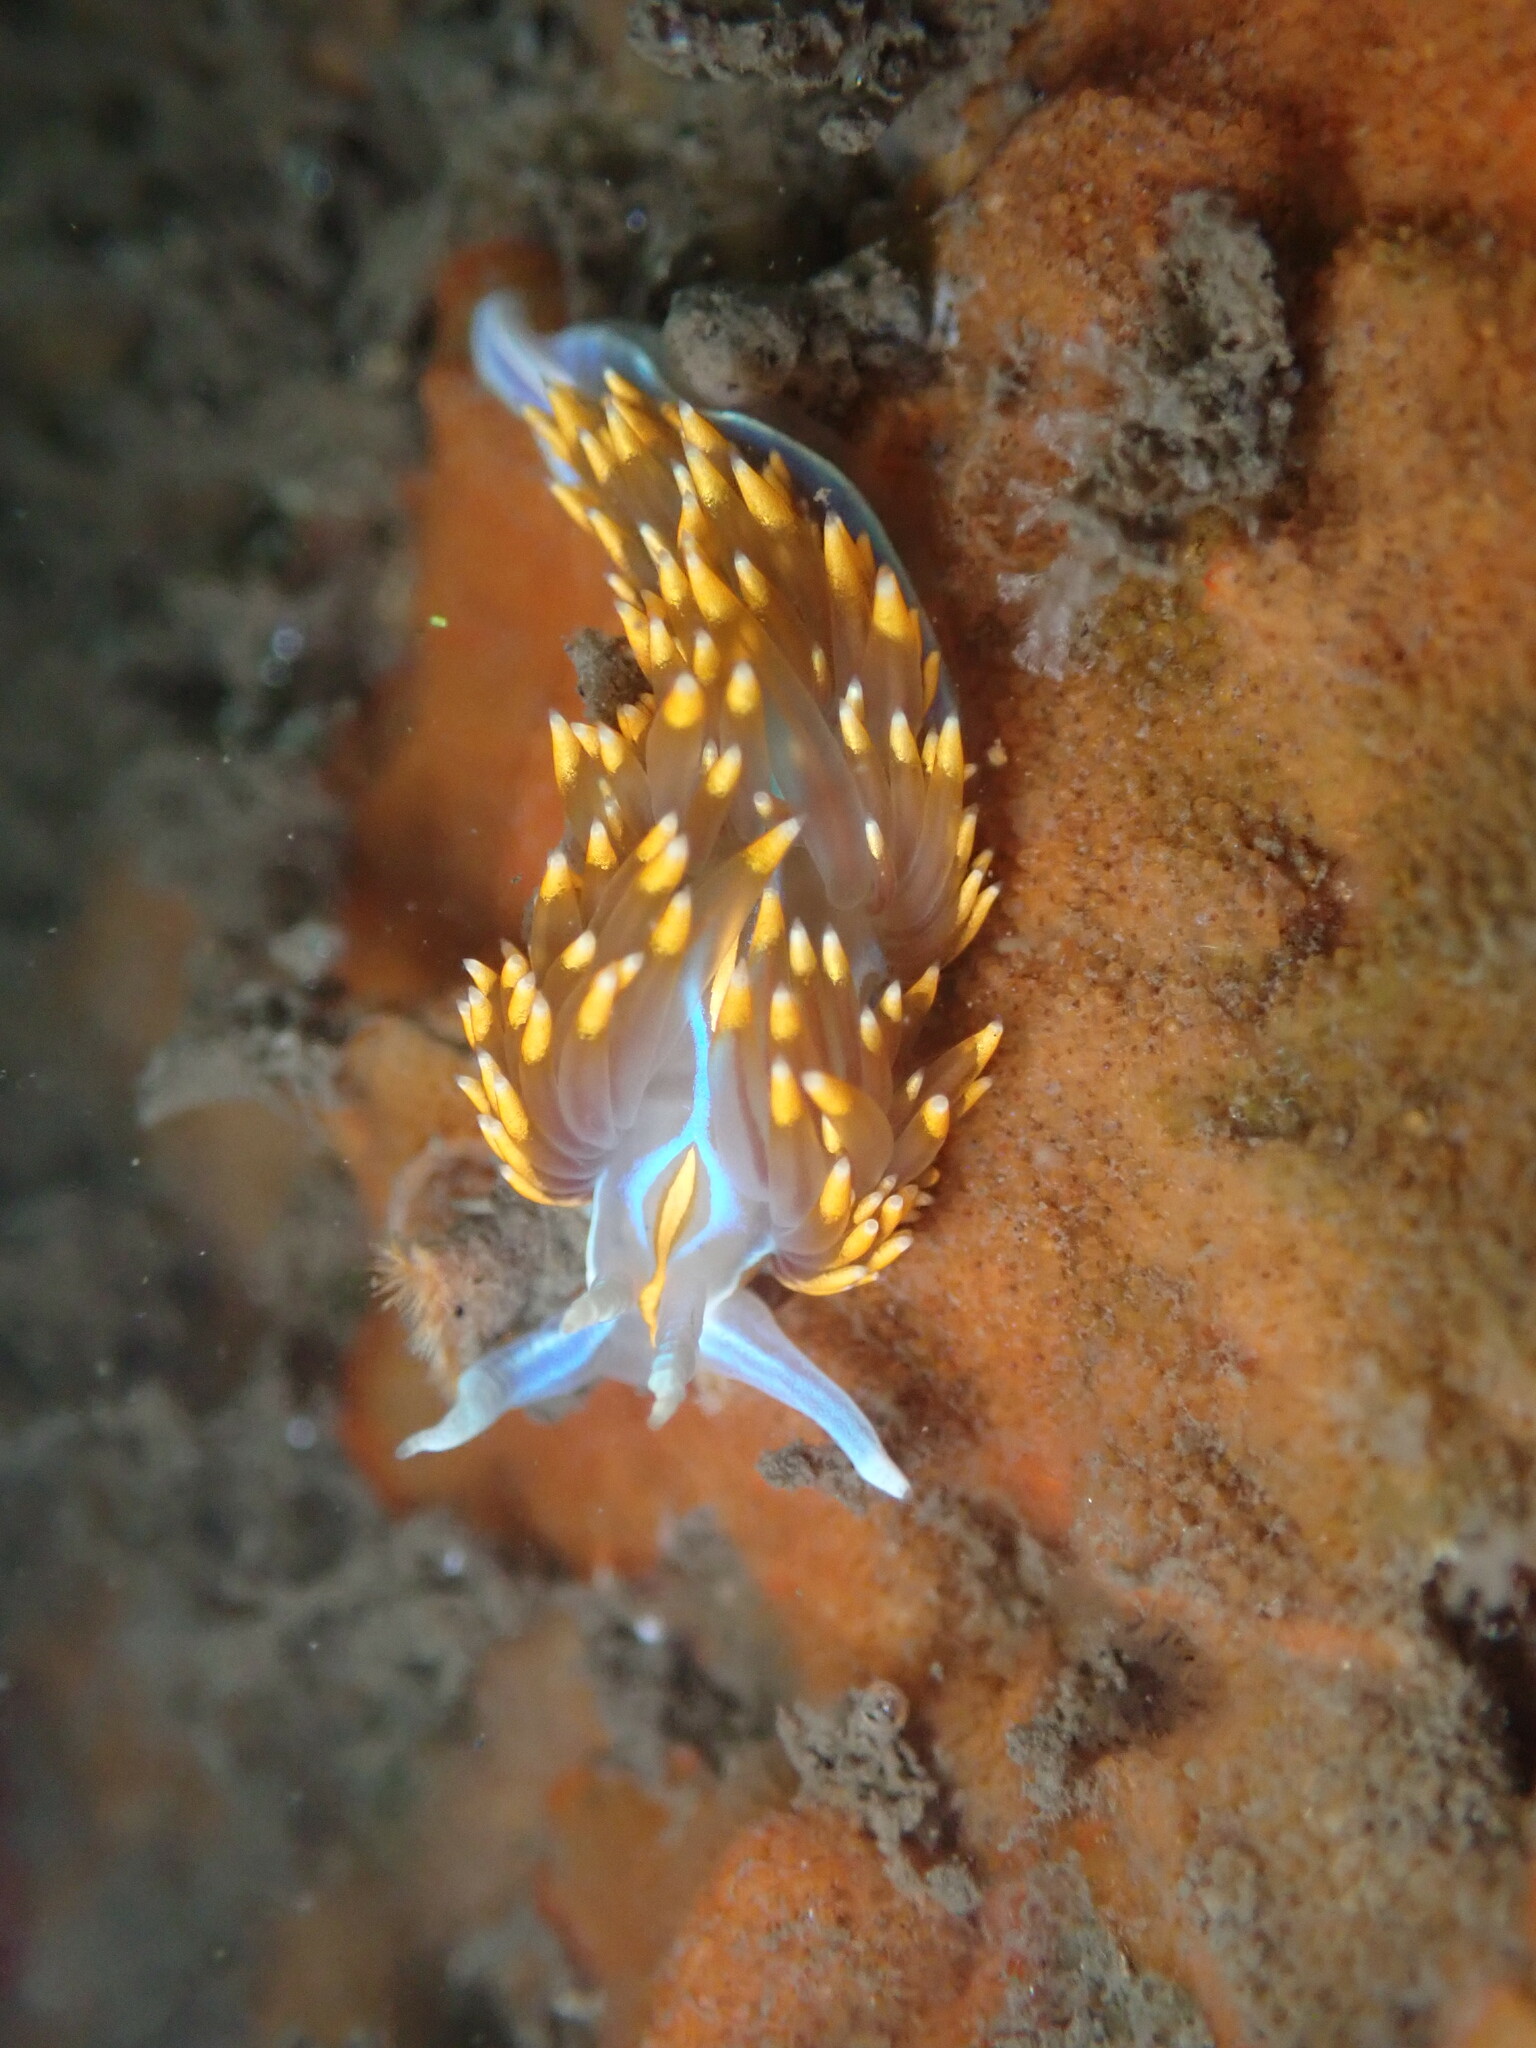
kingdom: Animalia
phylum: Mollusca
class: Gastropoda
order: Nudibranchia
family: Myrrhinidae
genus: Hermissenda
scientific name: Hermissenda opalescens
